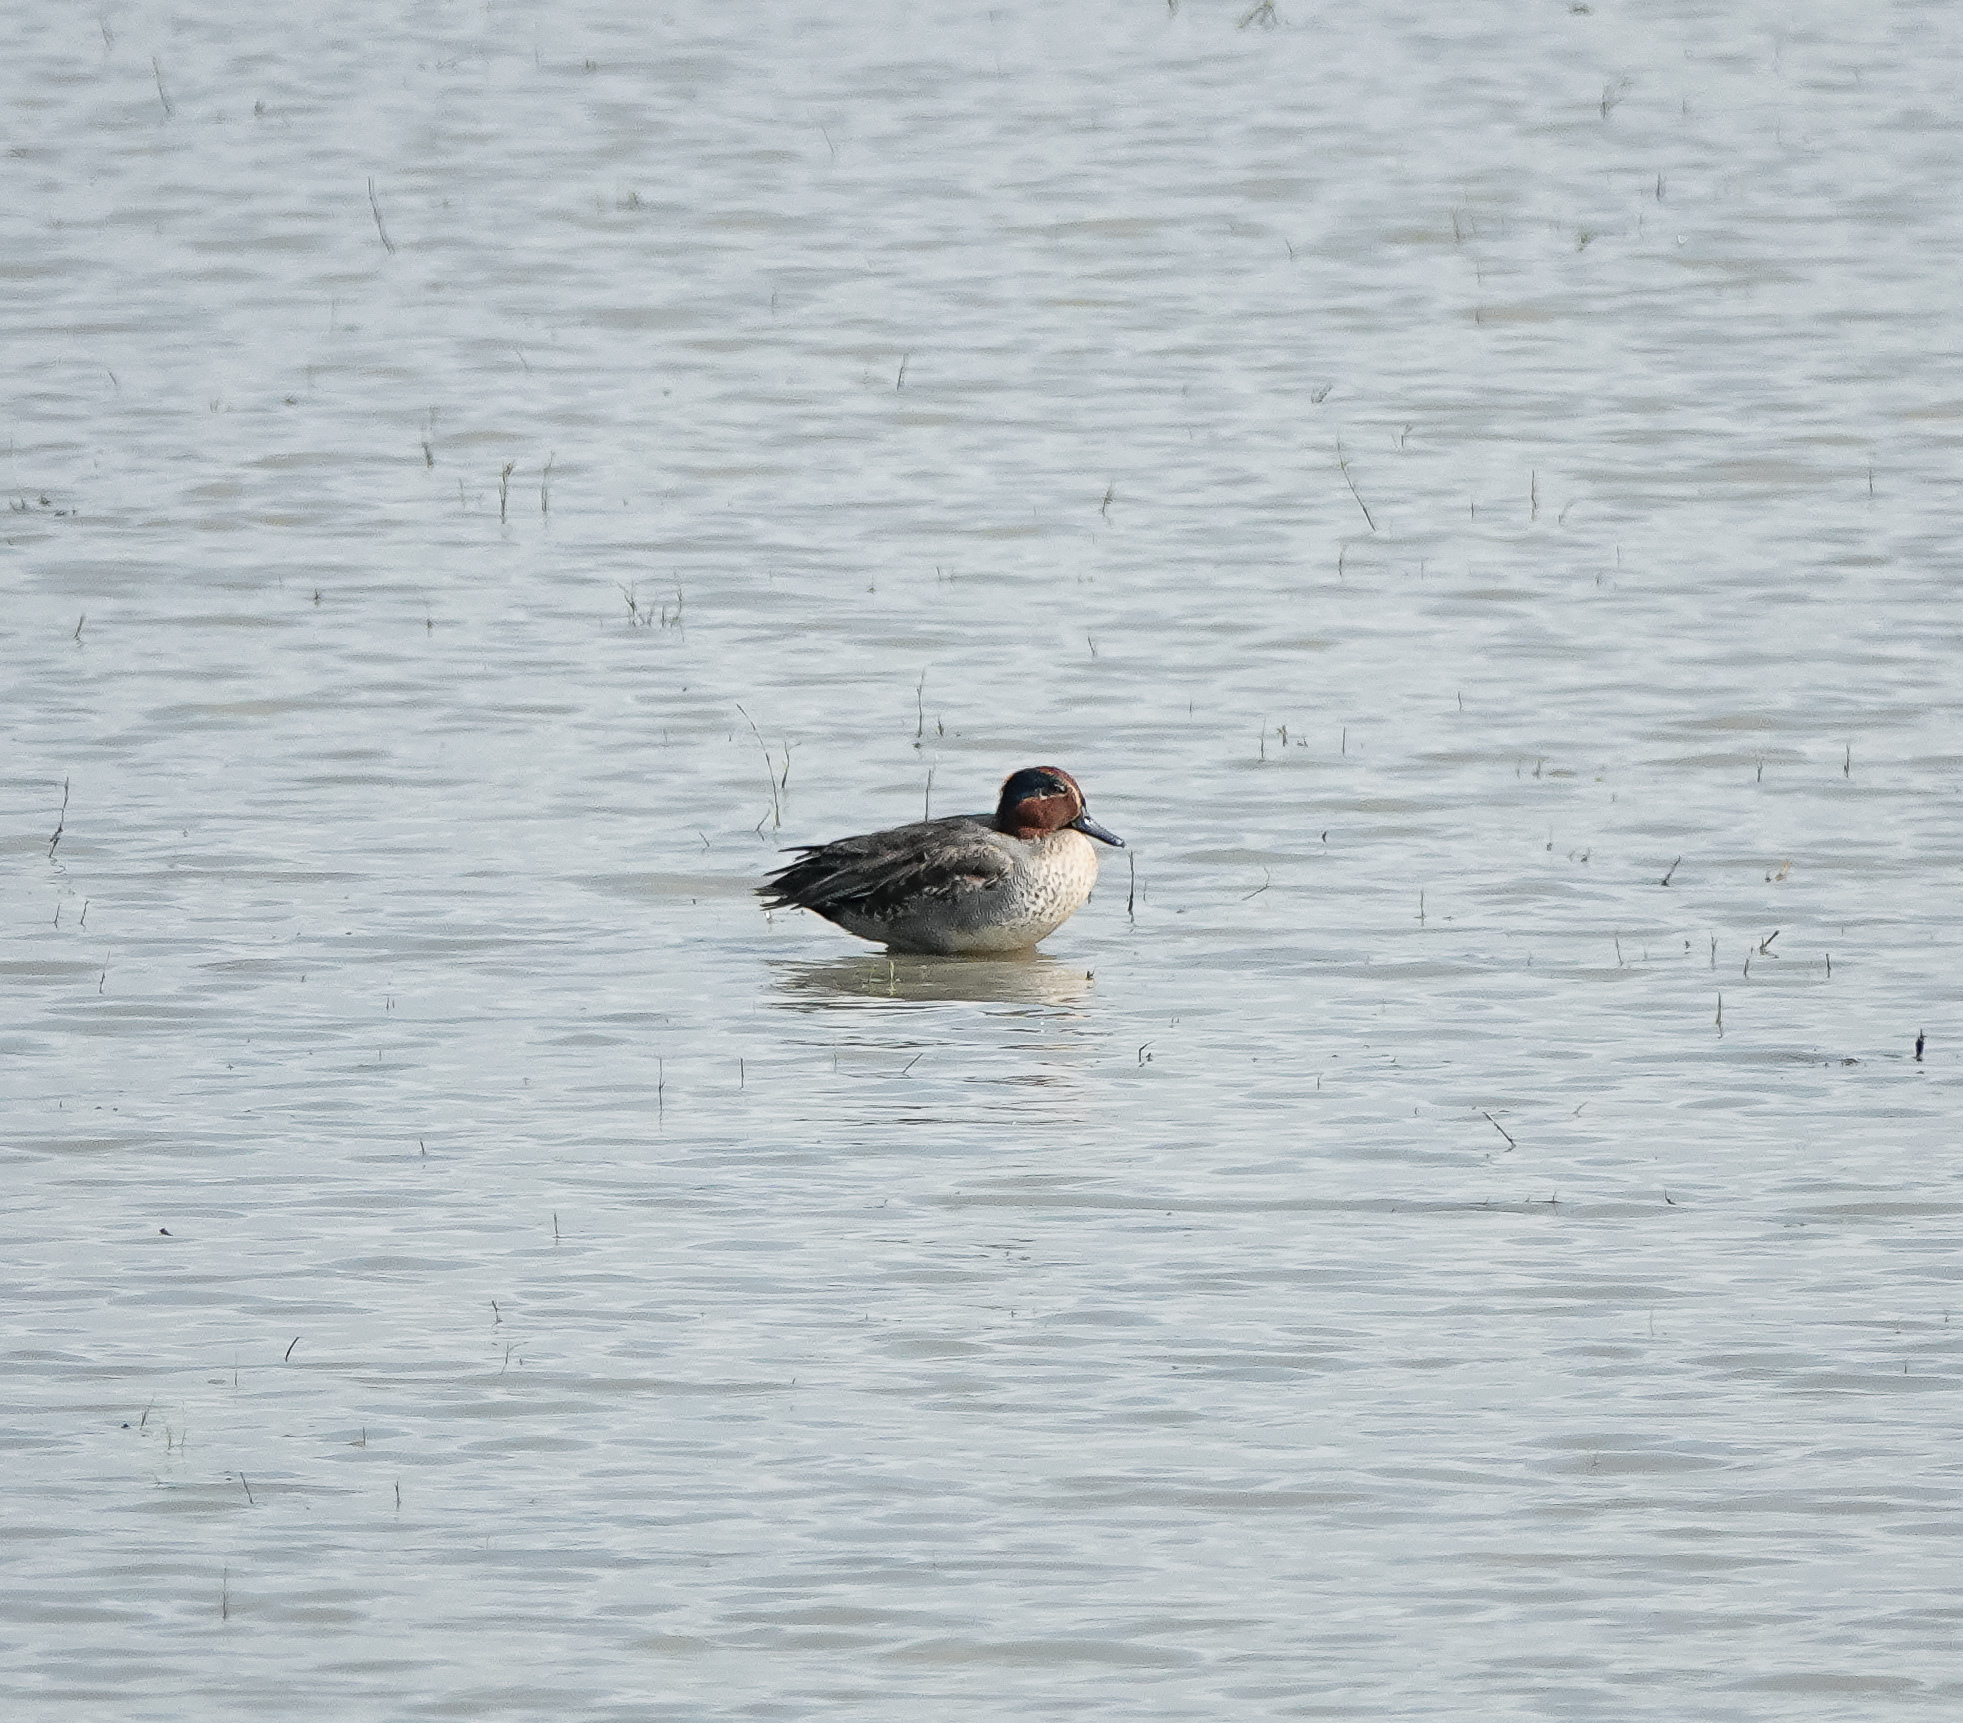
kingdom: Animalia
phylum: Chordata
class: Aves
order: Anseriformes
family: Anatidae
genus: Anas
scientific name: Anas crecca
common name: Eurasian teal
